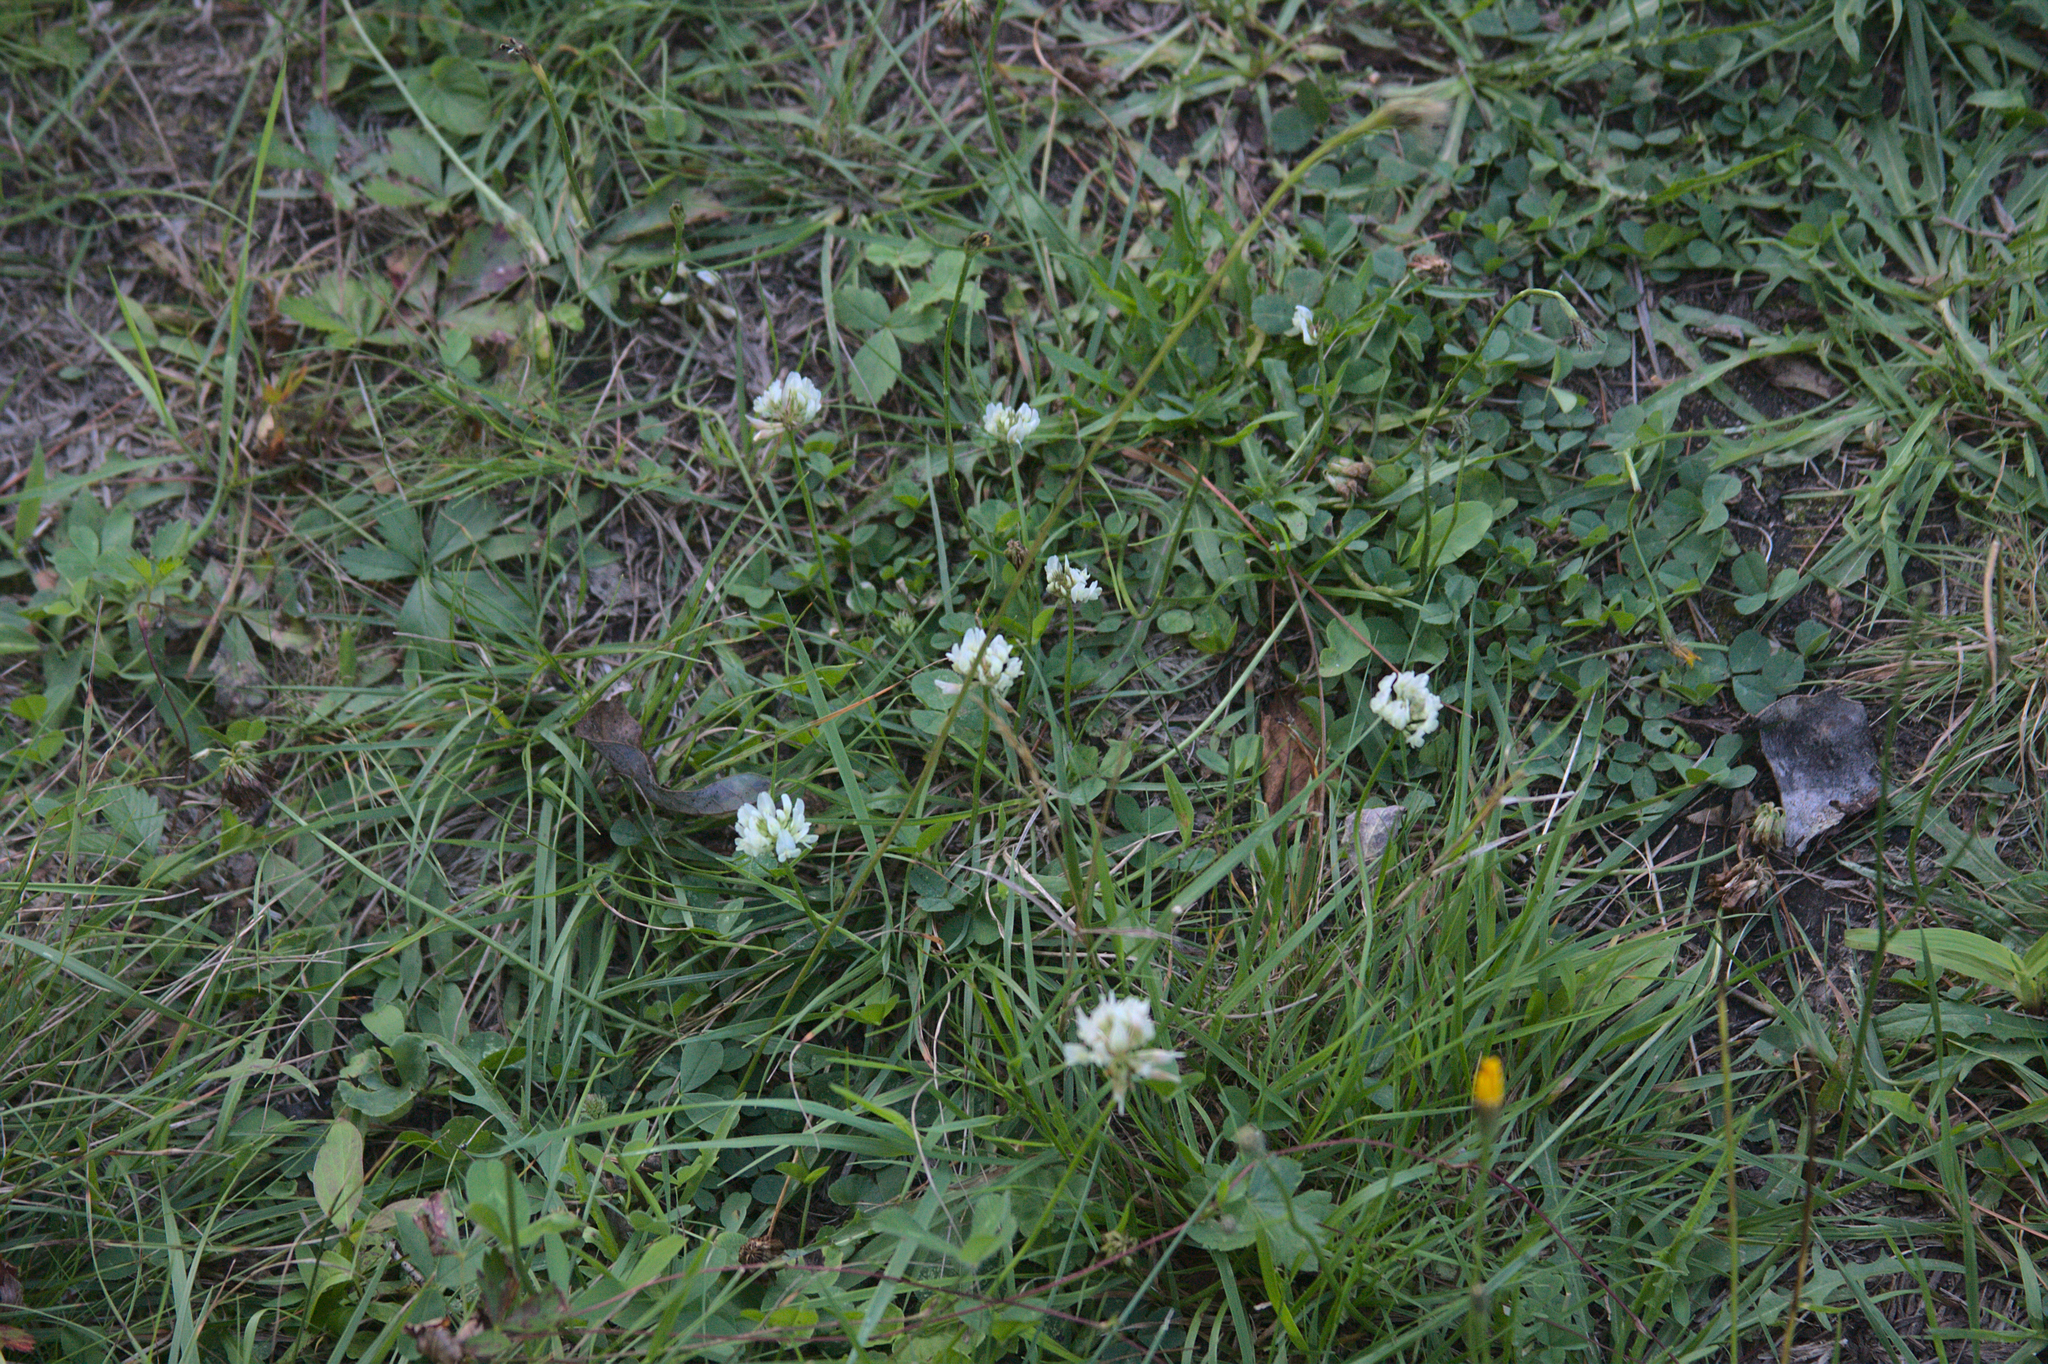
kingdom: Plantae
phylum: Tracheophyta
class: Magnoliopsida
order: Fabales
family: Fabaceae
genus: Trifolium
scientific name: Trifolium repens
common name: White clover
